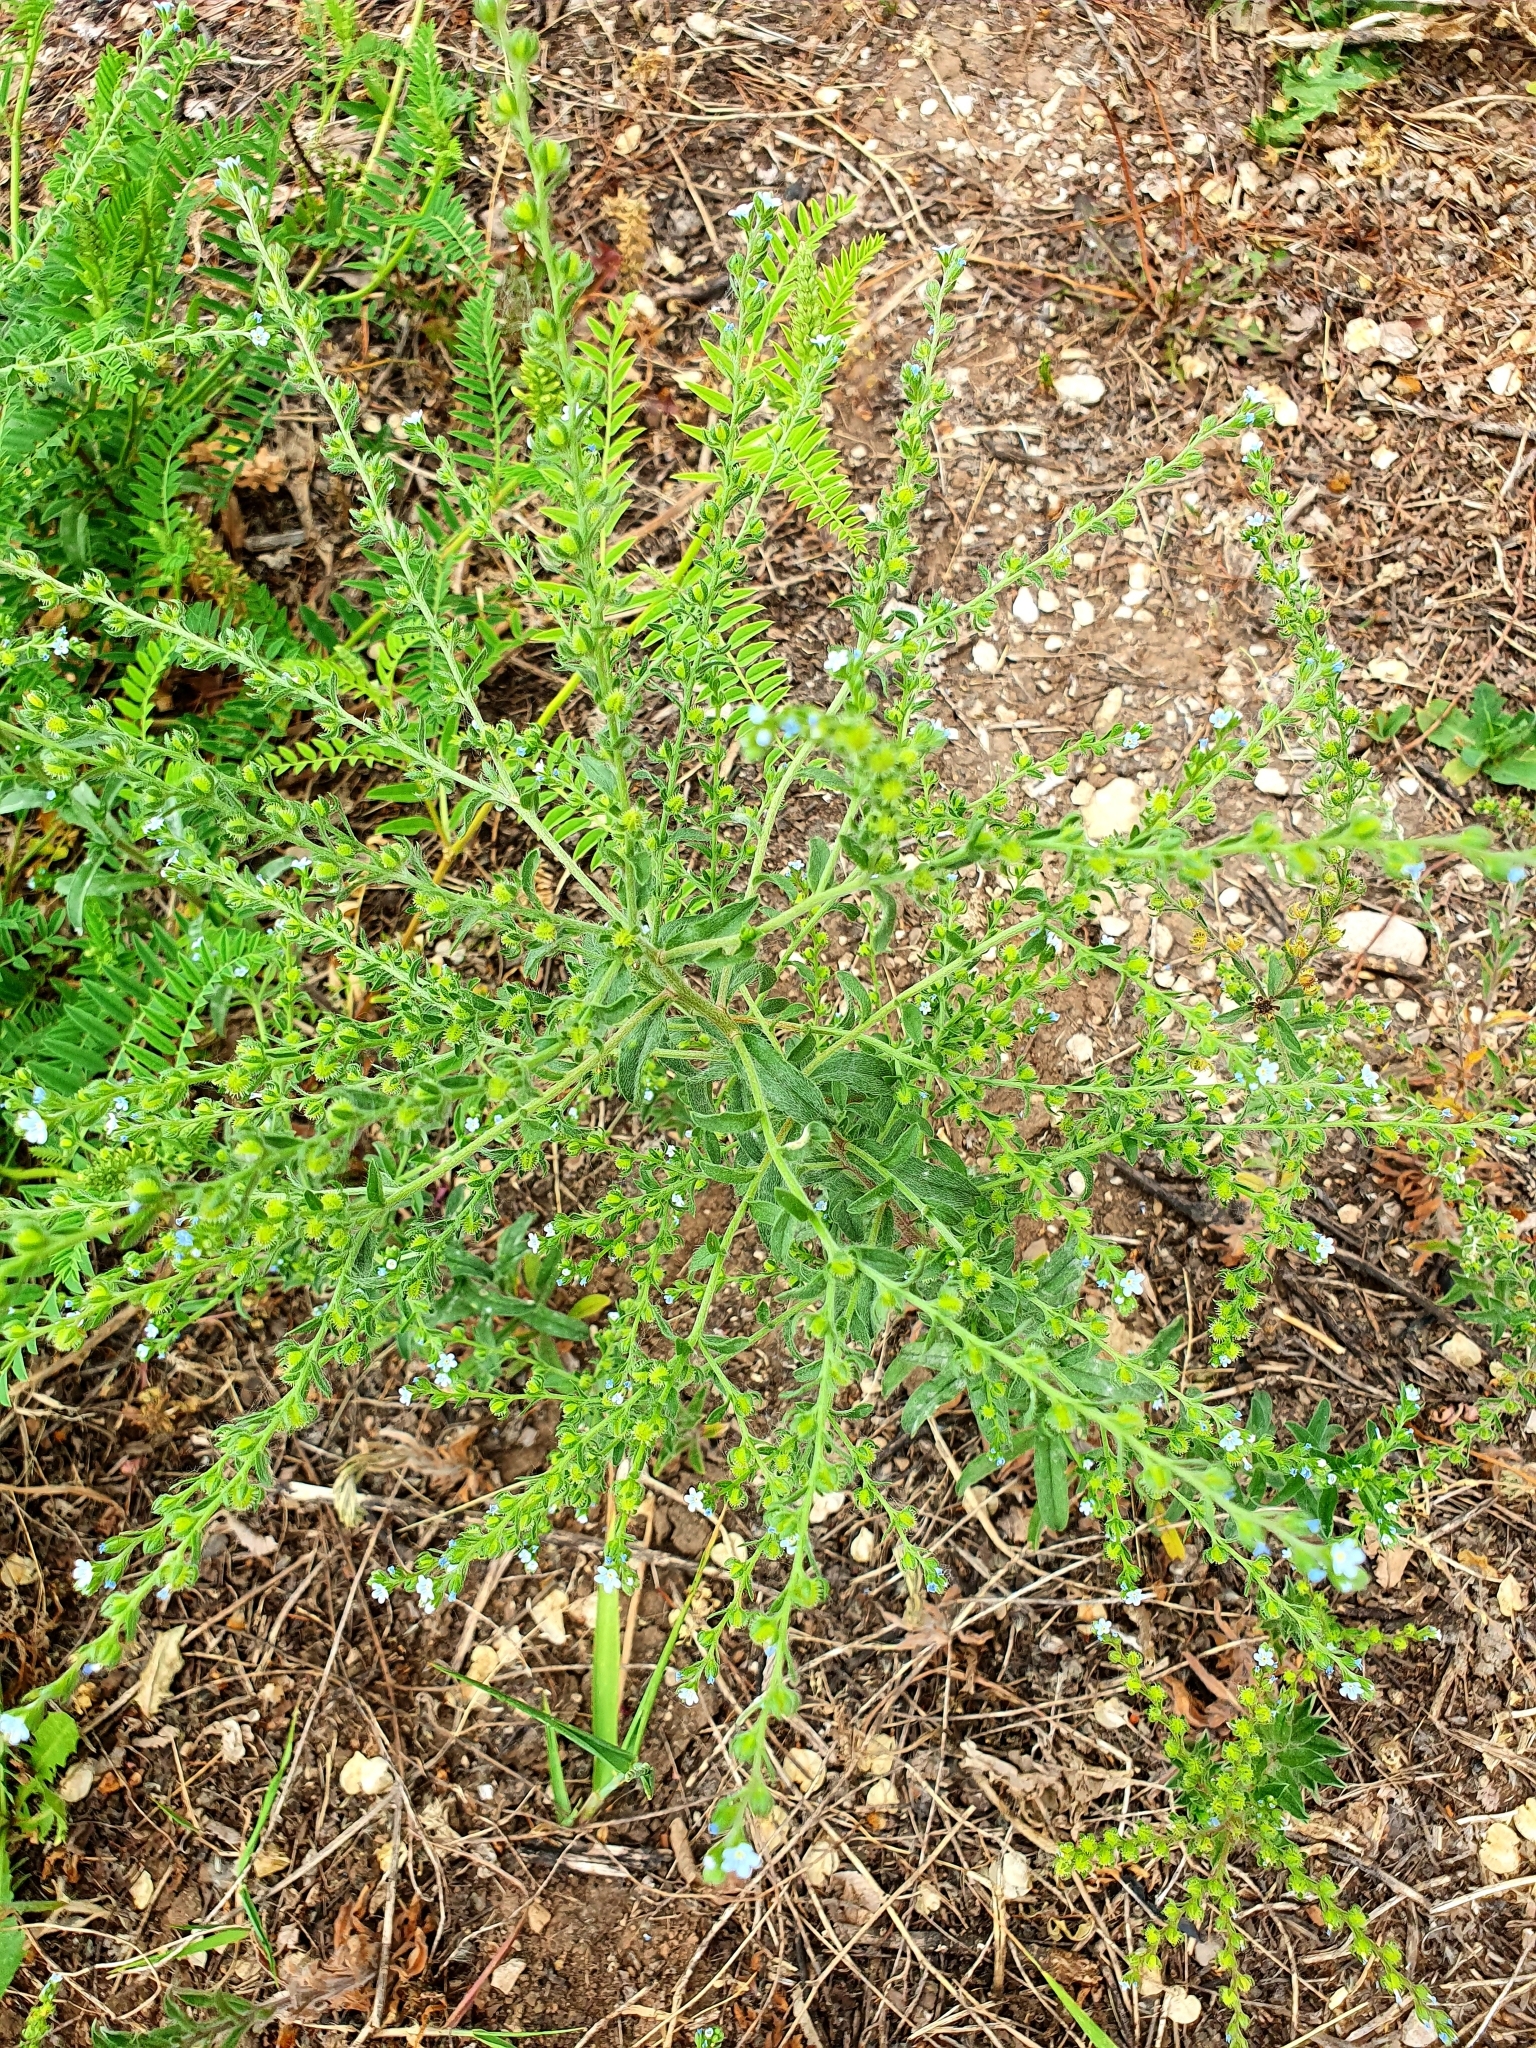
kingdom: Plantae
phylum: Tracheophyta
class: Magnoliopsida
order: Boraginales
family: Boraginaceae
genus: Lappula
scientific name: Lappula squarrosa
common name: European stickseed
